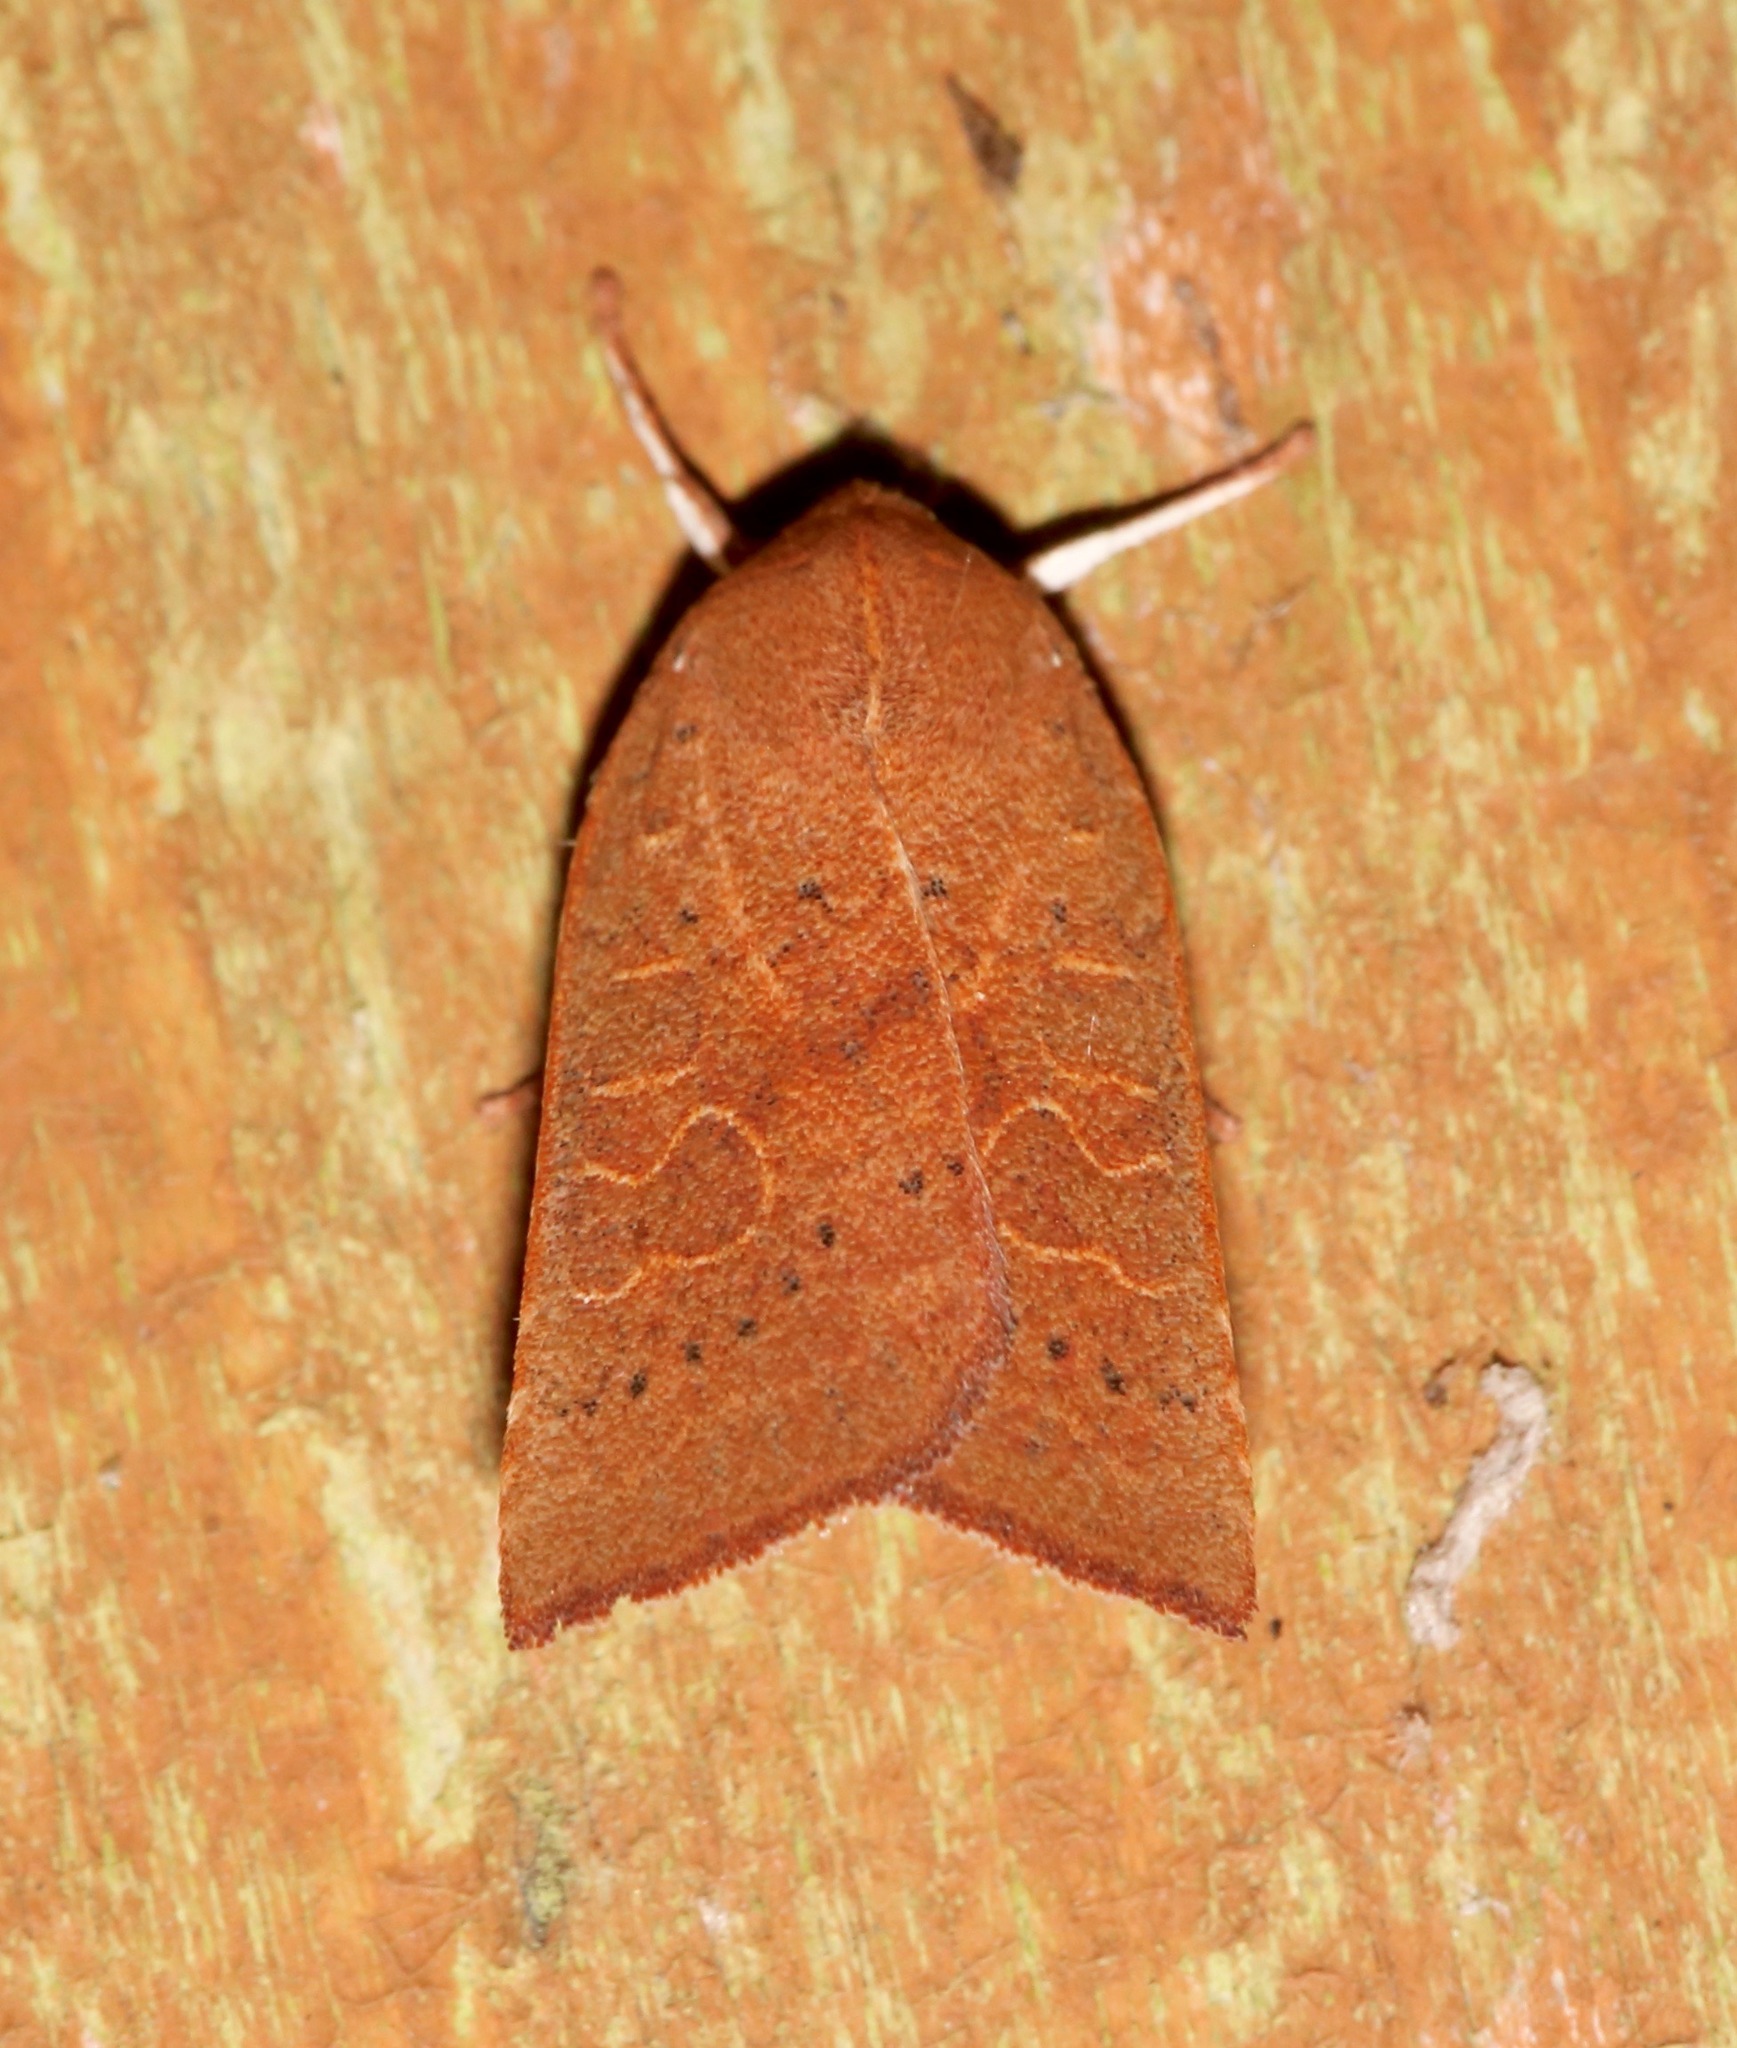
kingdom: Animalia
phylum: Arthropoda
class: Insecta
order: Lepidoptera
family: Noctuidae
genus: Xystopeplus
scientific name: Xystopeplus rufago
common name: Red-winged sallow
